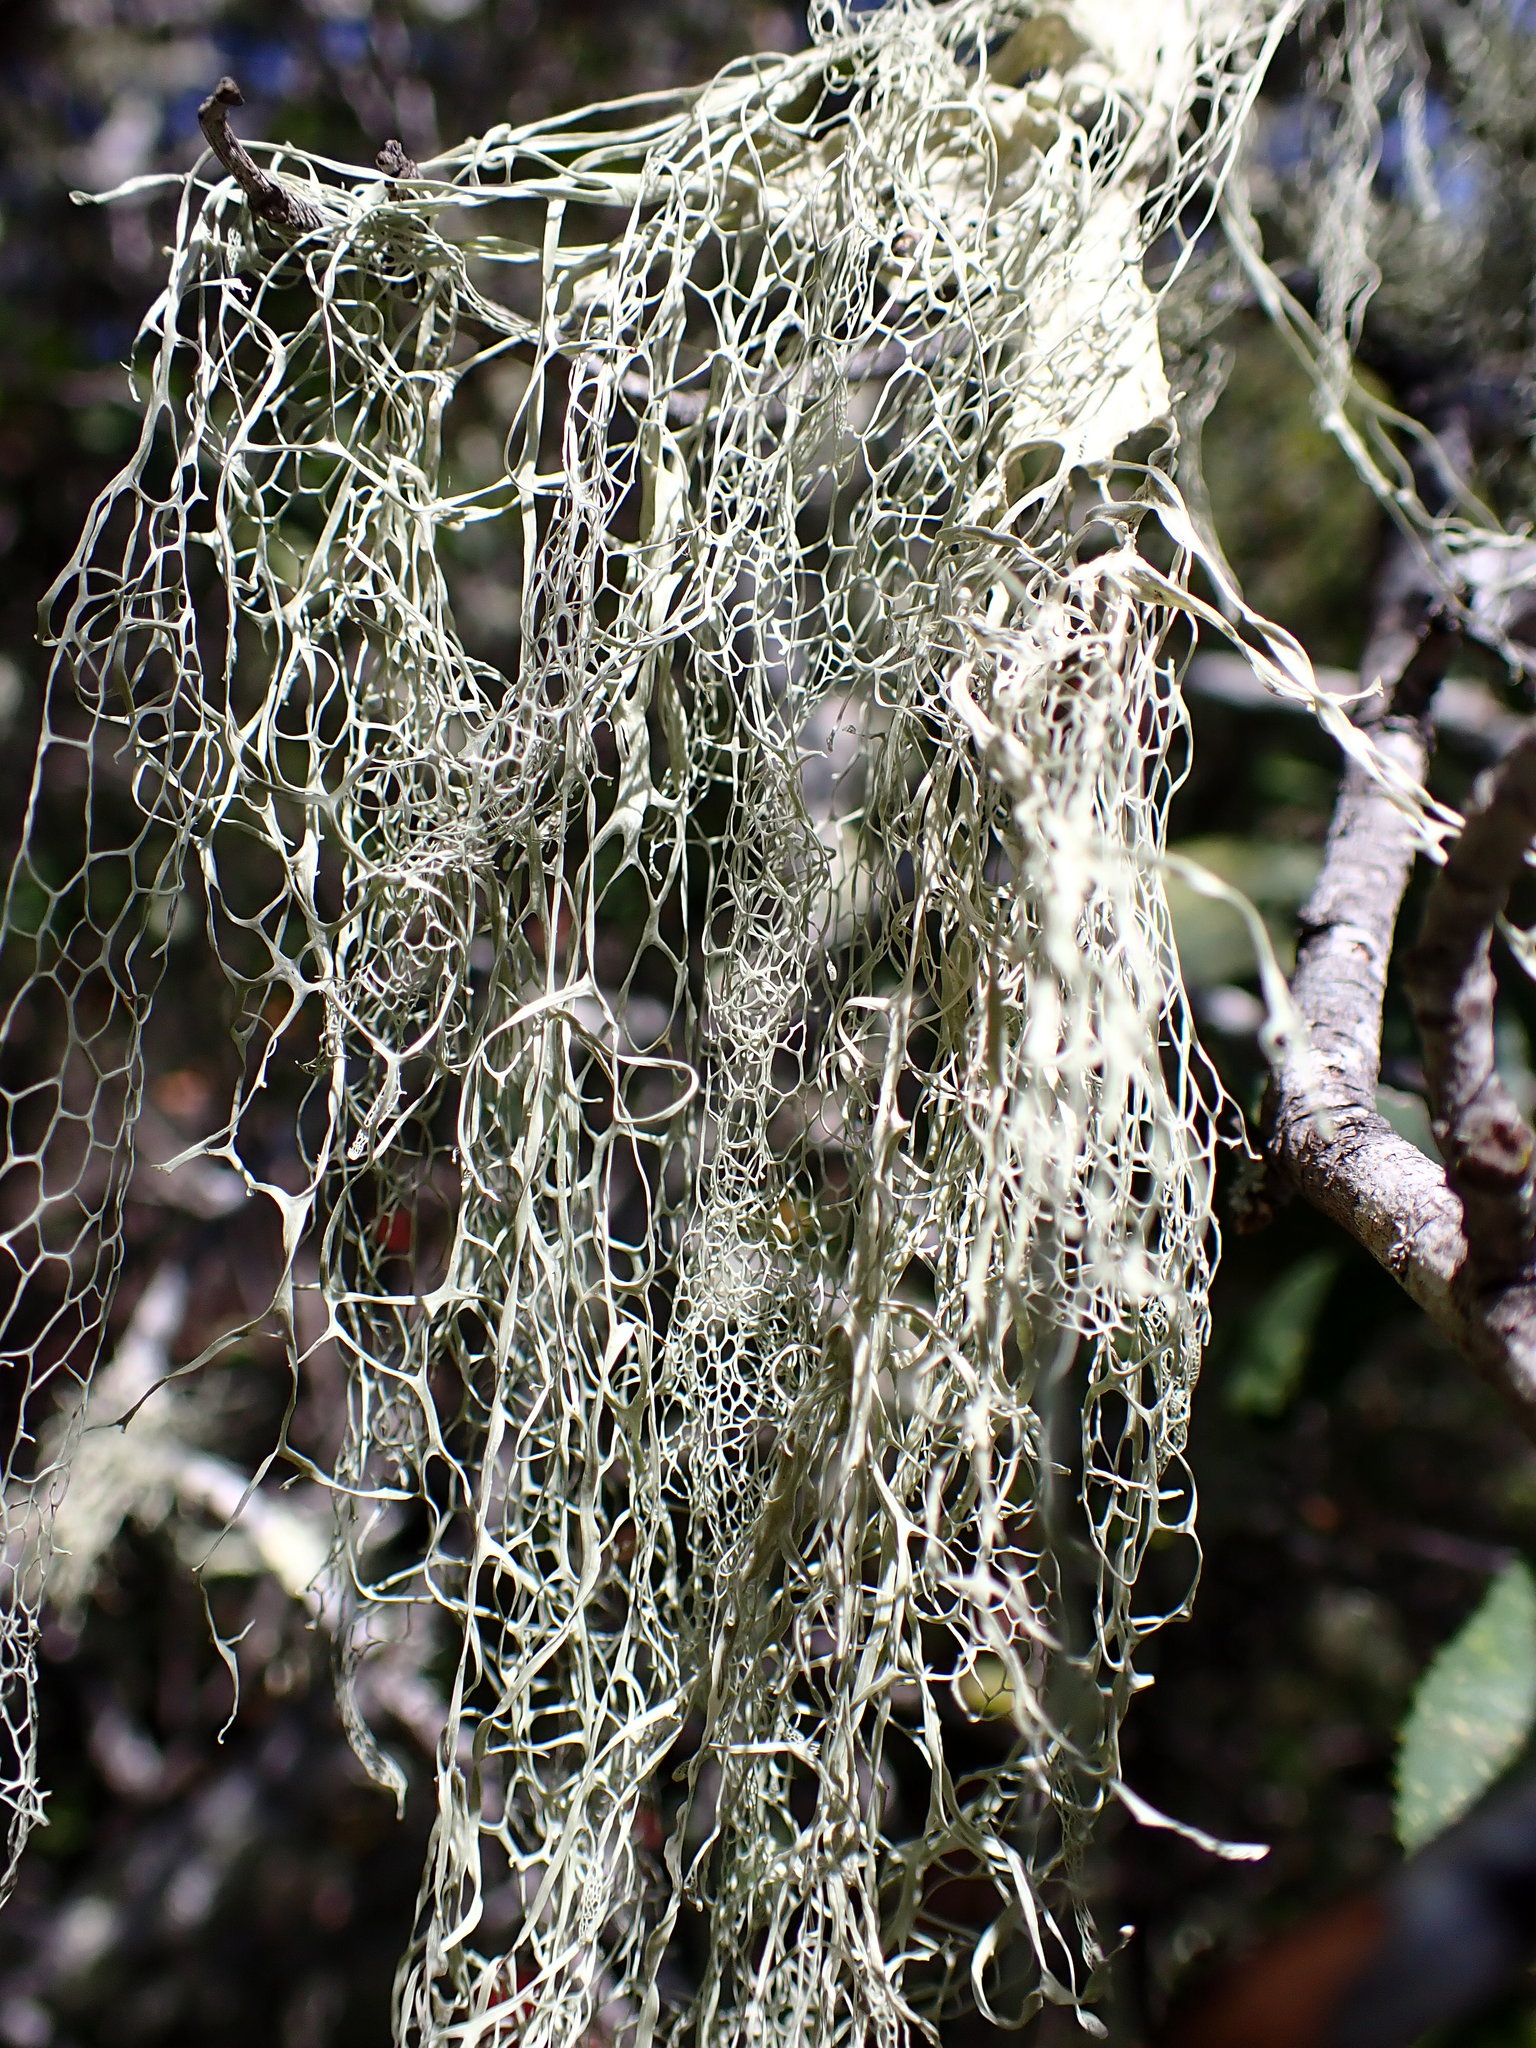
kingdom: Fungi
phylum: Ascomycota
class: Lecanoromycetes
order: Lecanorales
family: Ramalinaceae
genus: Ramalina
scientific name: Ramalina menziesii
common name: Lace lichen
